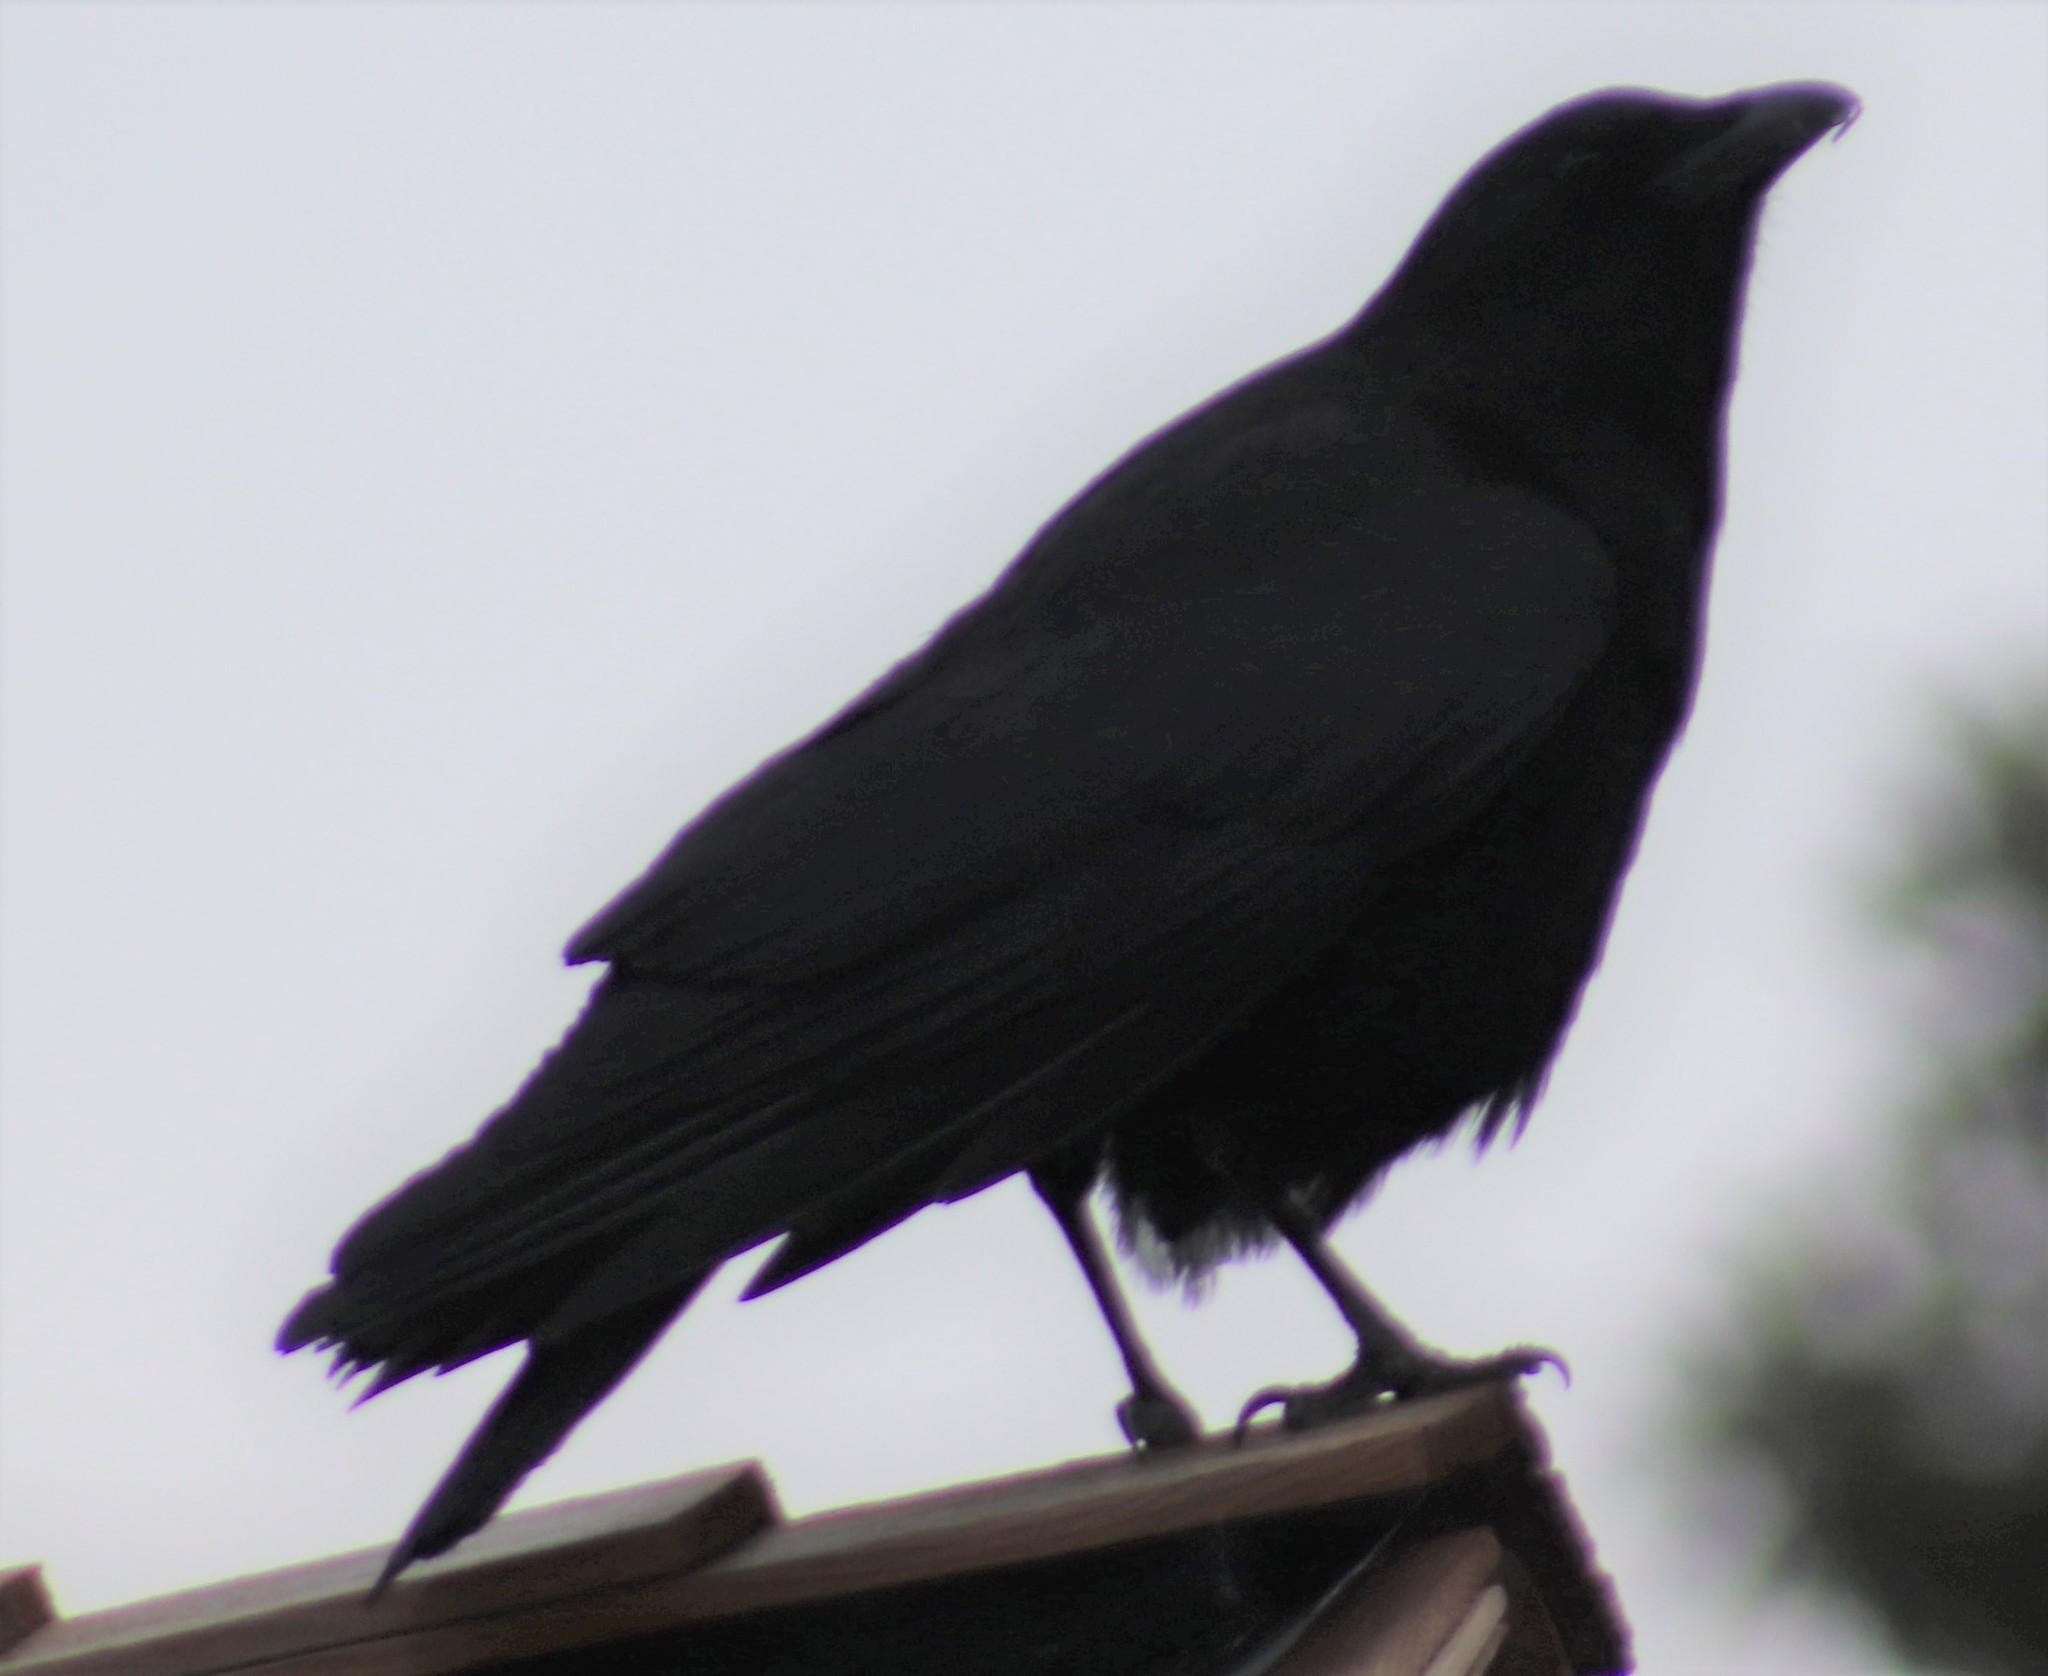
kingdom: Animalia
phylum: Chordata
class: Aves
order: Passeriformes
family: Corvidae
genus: Corvus
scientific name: Corvus brachyrhynchos
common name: American crow
